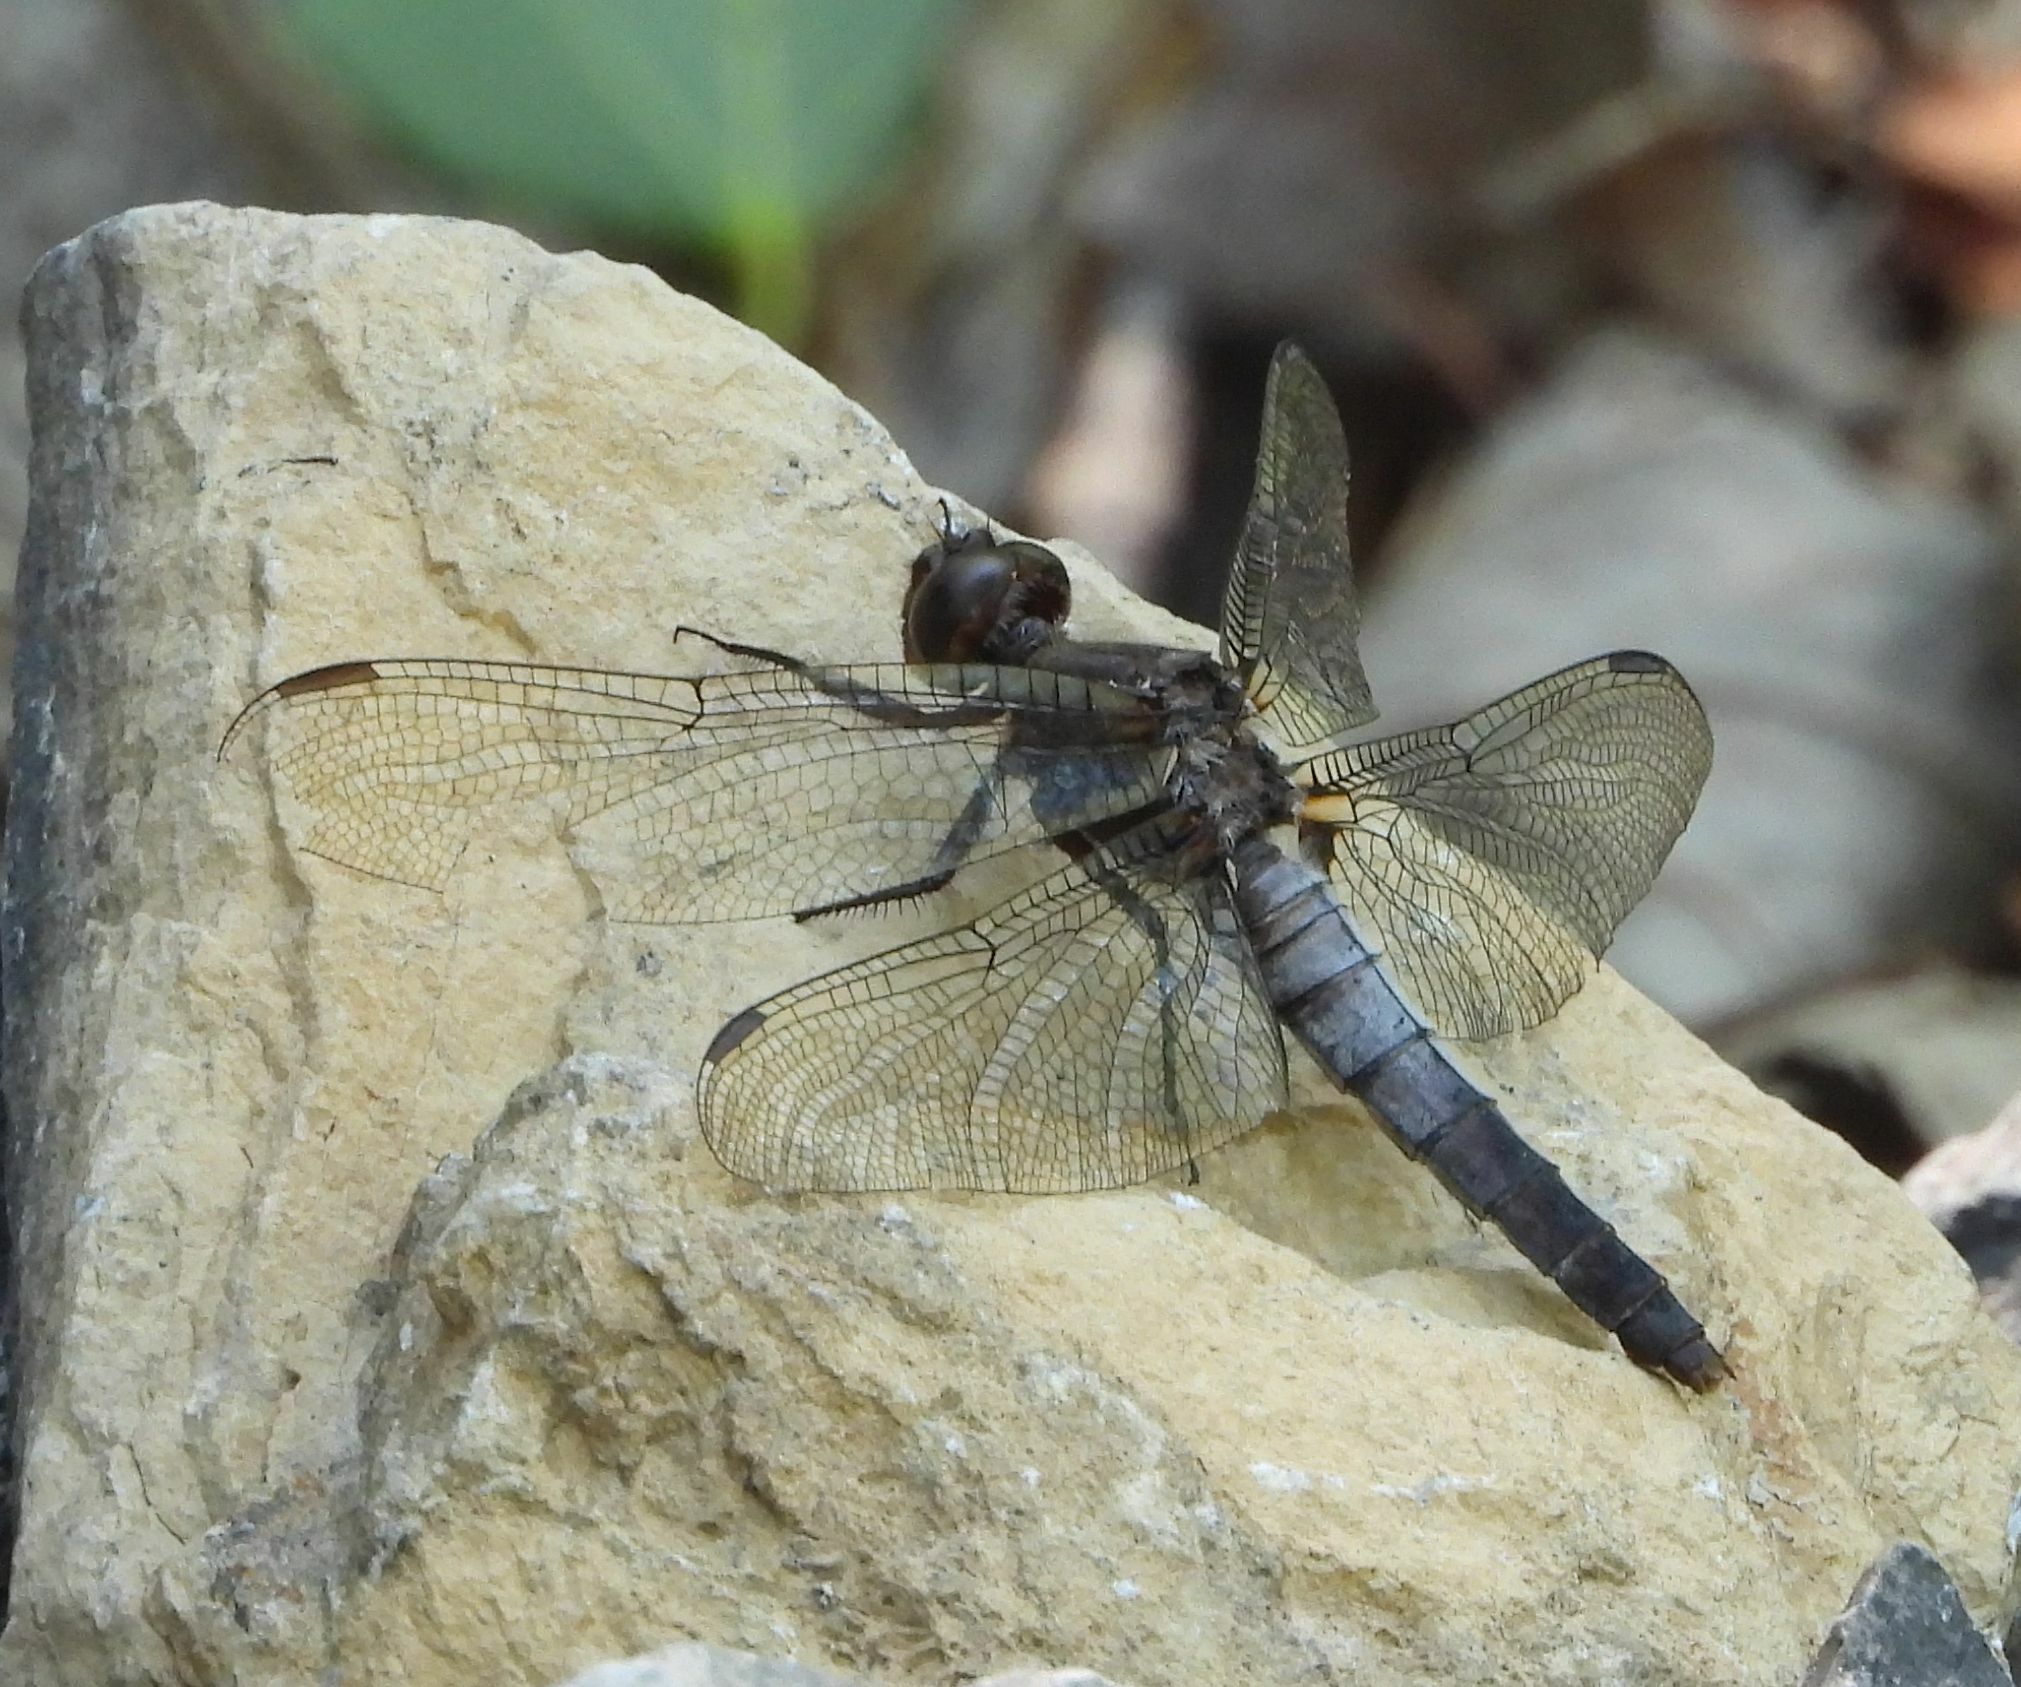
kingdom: Animalia
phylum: Arthropoda
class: Insecta
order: Odonata
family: Libellulidae
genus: Ladona
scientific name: Ladona julia
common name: Chalk-fronted corporal
